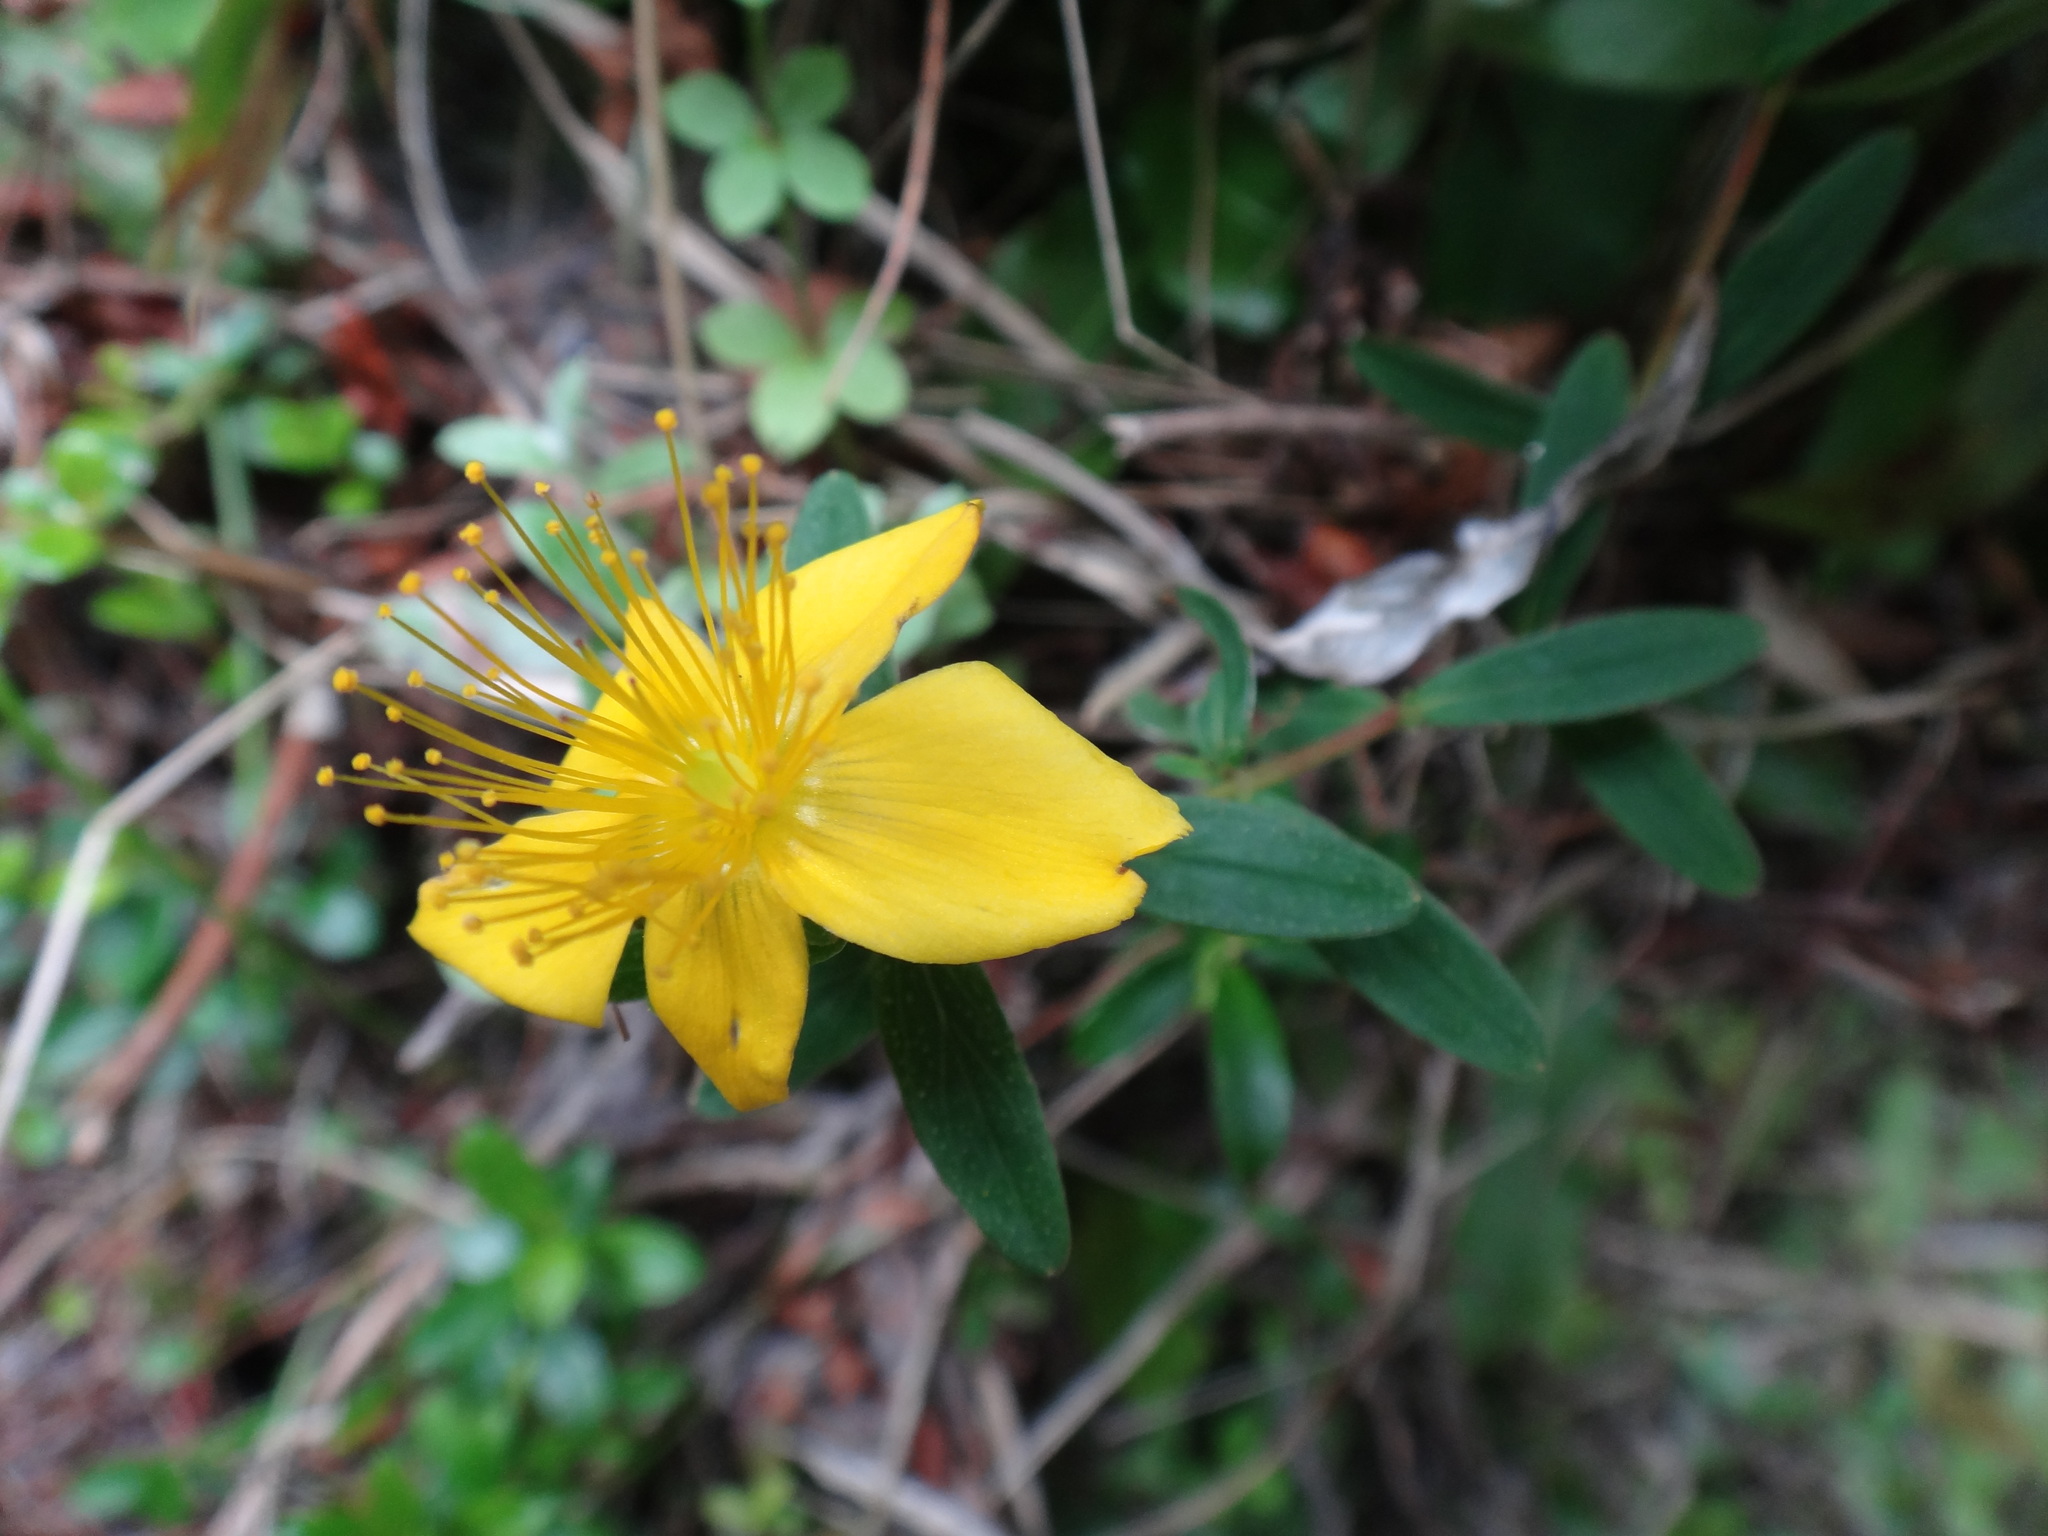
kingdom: Plantae
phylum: Tracheophyta
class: Magnoliopsida
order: Malpighiales
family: Hypericaceae
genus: Hypericum
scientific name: Hypericum nagasawae
